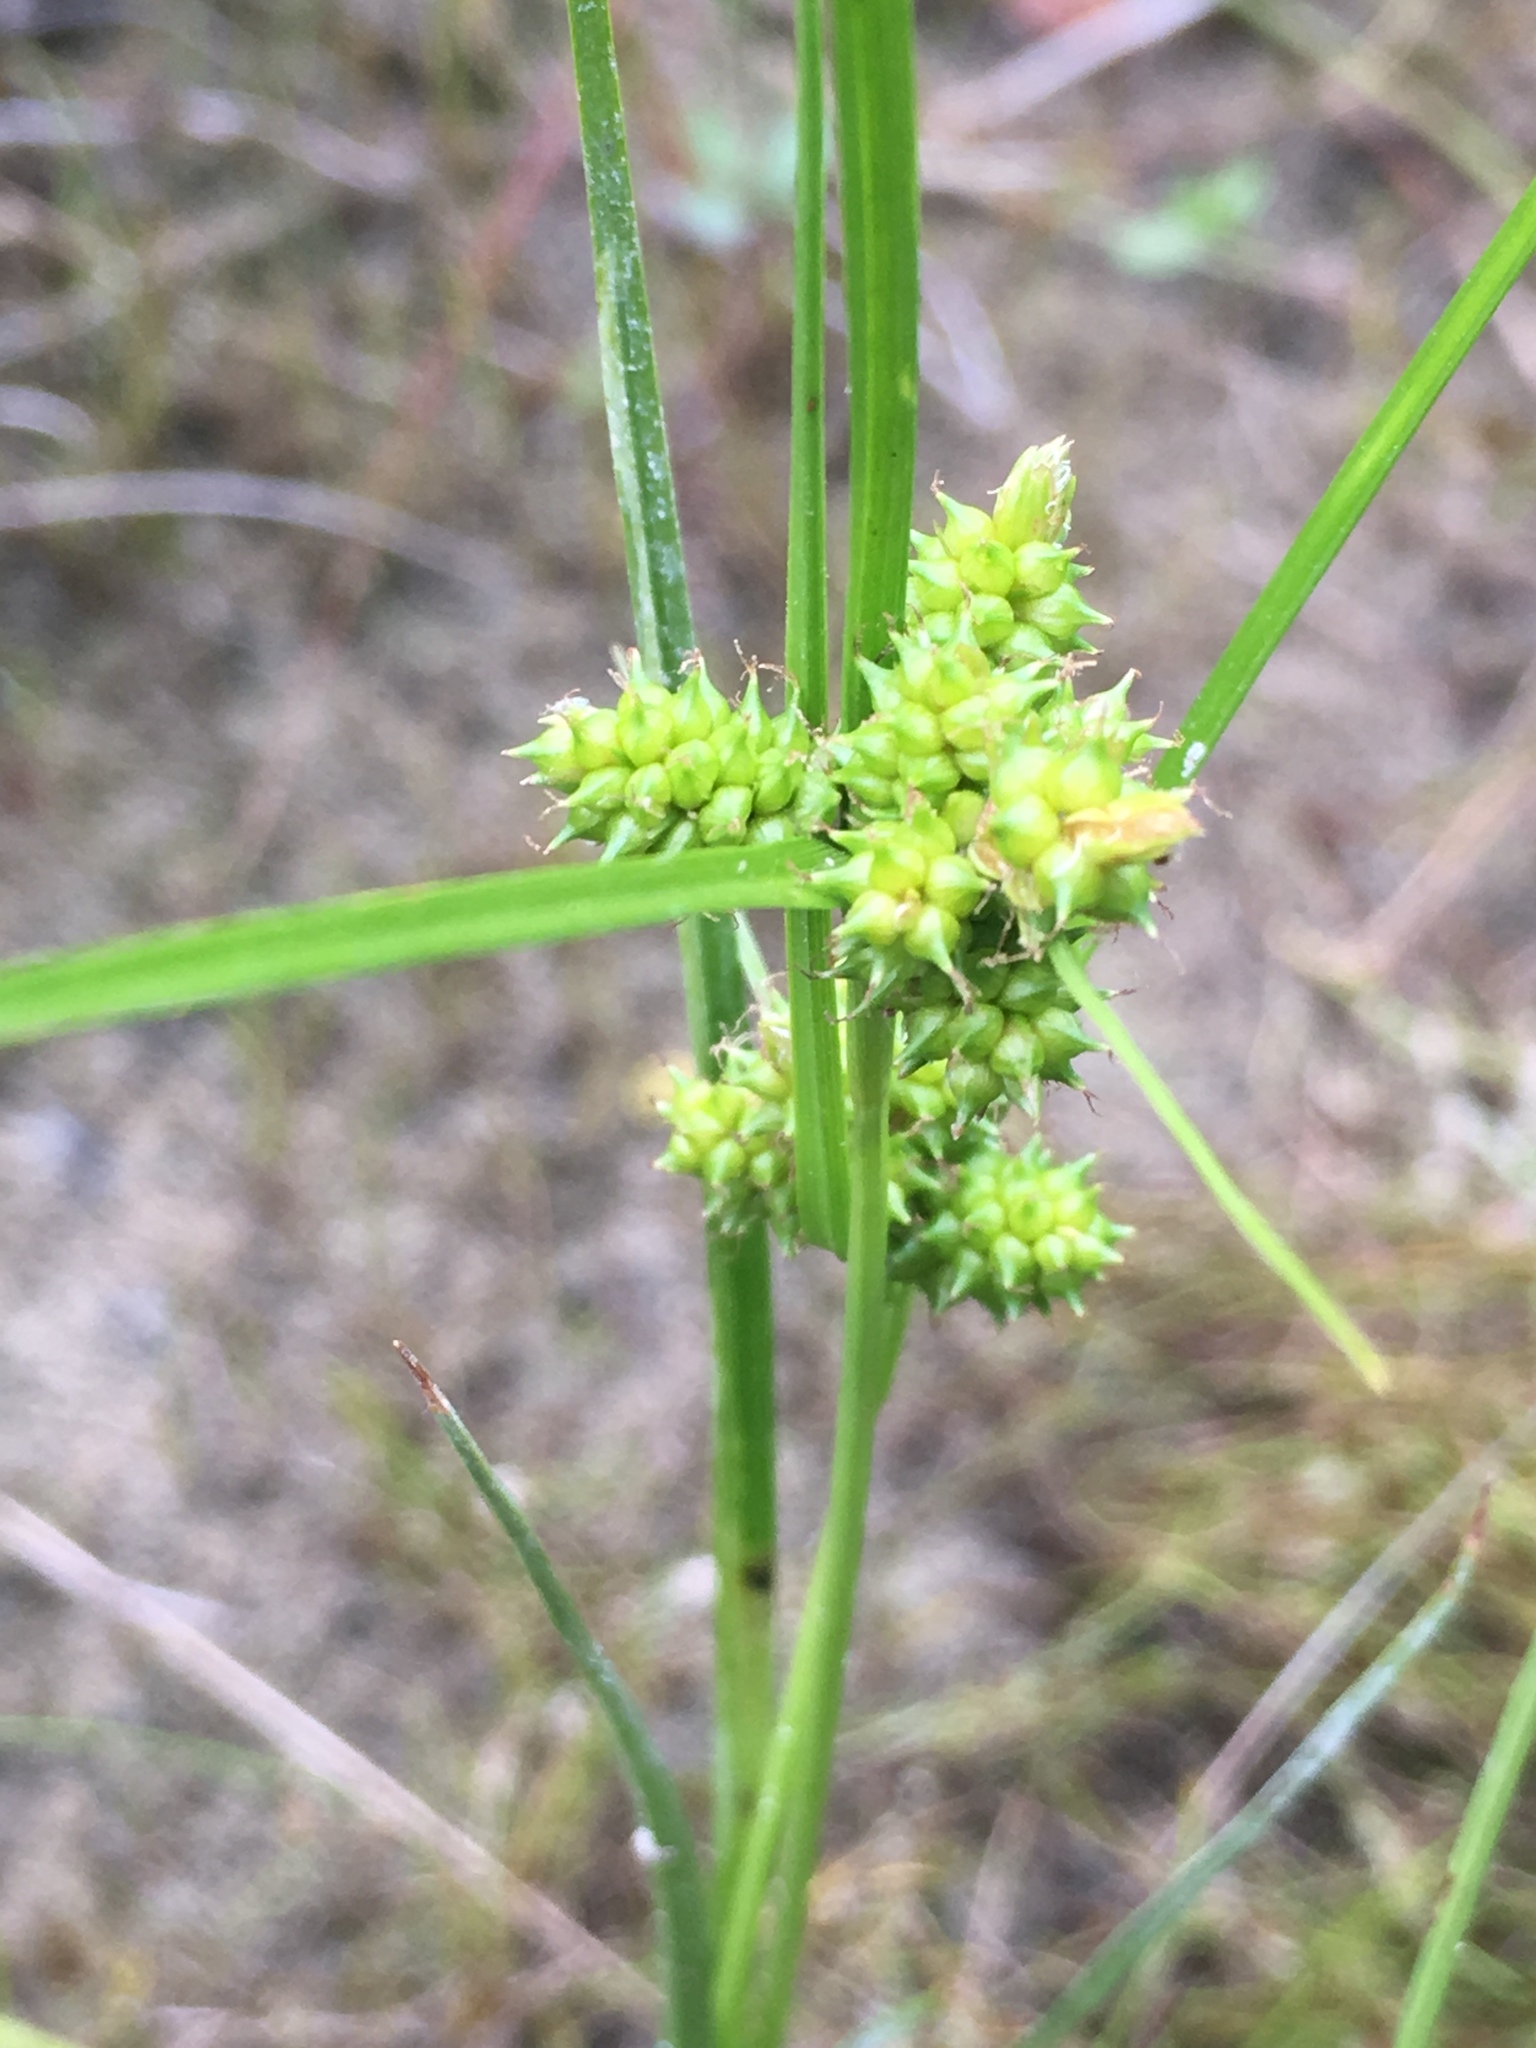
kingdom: Plantae
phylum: Tracheophyta
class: Liliopsida
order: Poales
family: Cyperaceae
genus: Carex
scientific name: Carex
